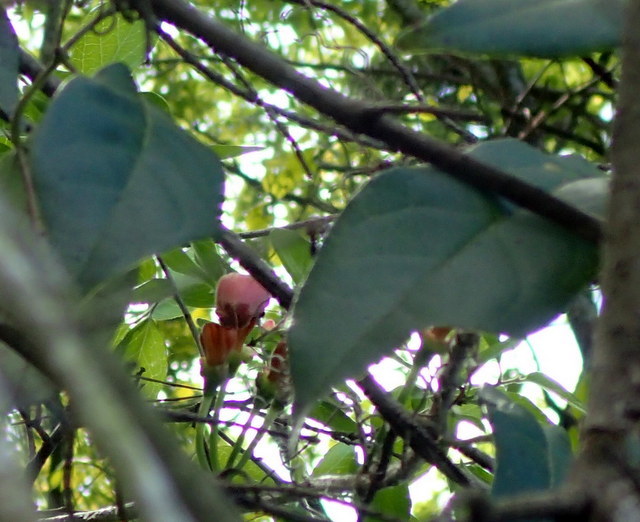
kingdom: Plantae
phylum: Tracheophyta
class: Magnoliopsida
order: Lamiales
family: Bignoniaceae
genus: Bignonia
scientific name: Bignonia capreolata
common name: Crossvine
